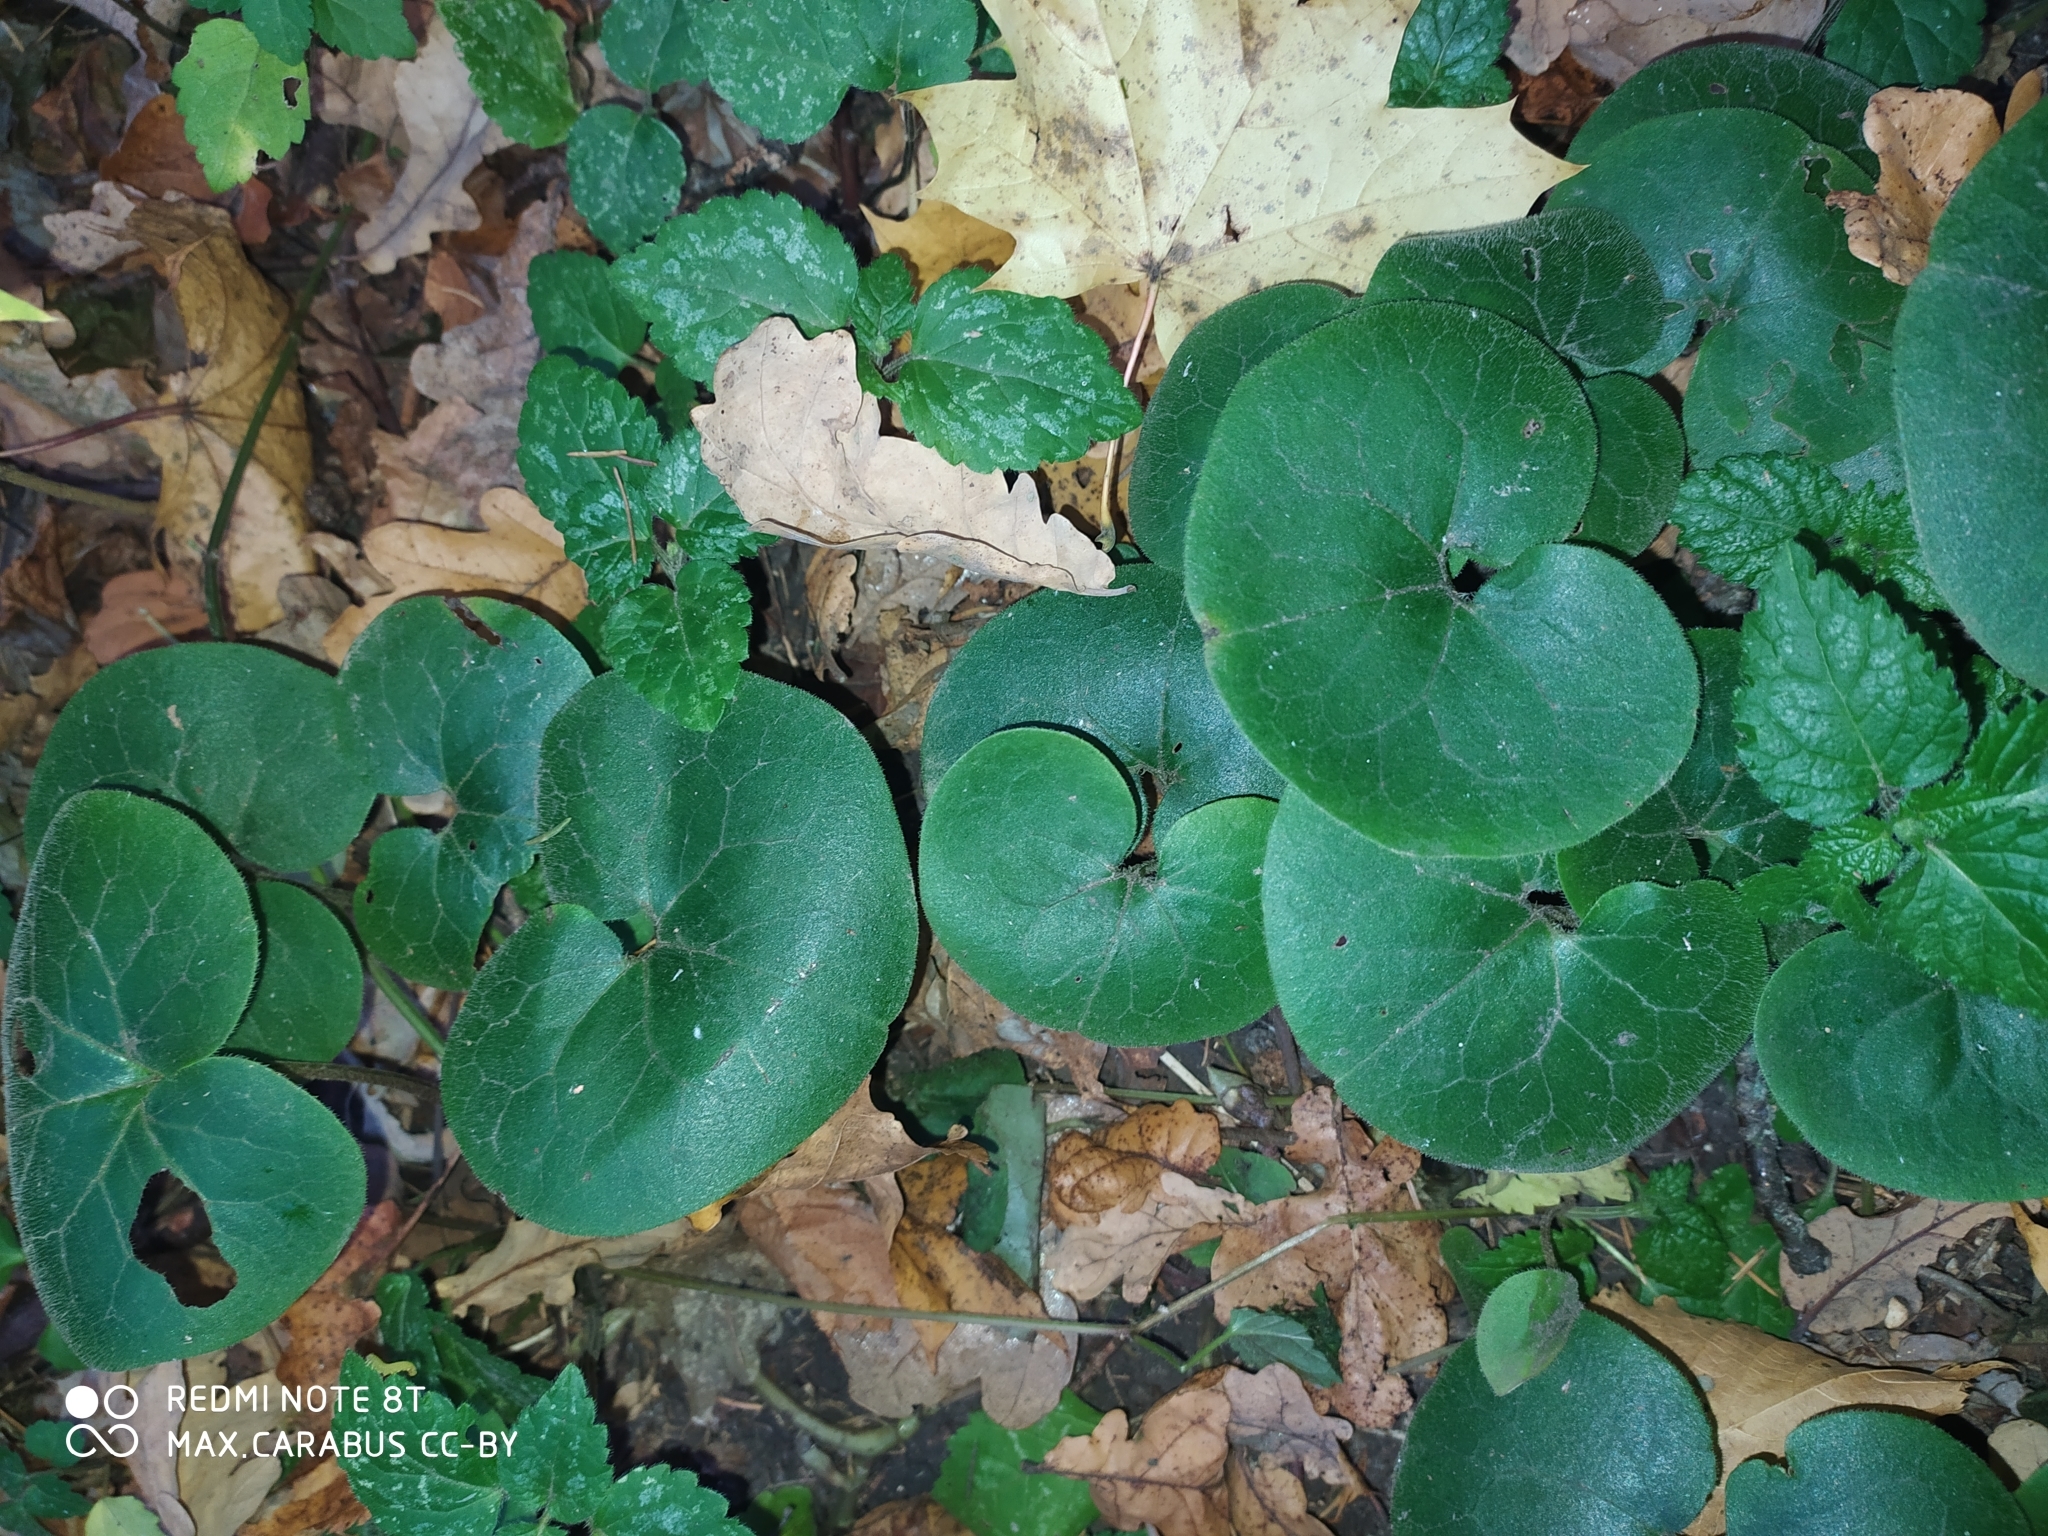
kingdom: Plantae
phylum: Tracheophyta
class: Magnoliopsida
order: Piperales
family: Aristolochiaceae
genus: Asarum
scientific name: Asarum europaeum
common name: Asarabacca
